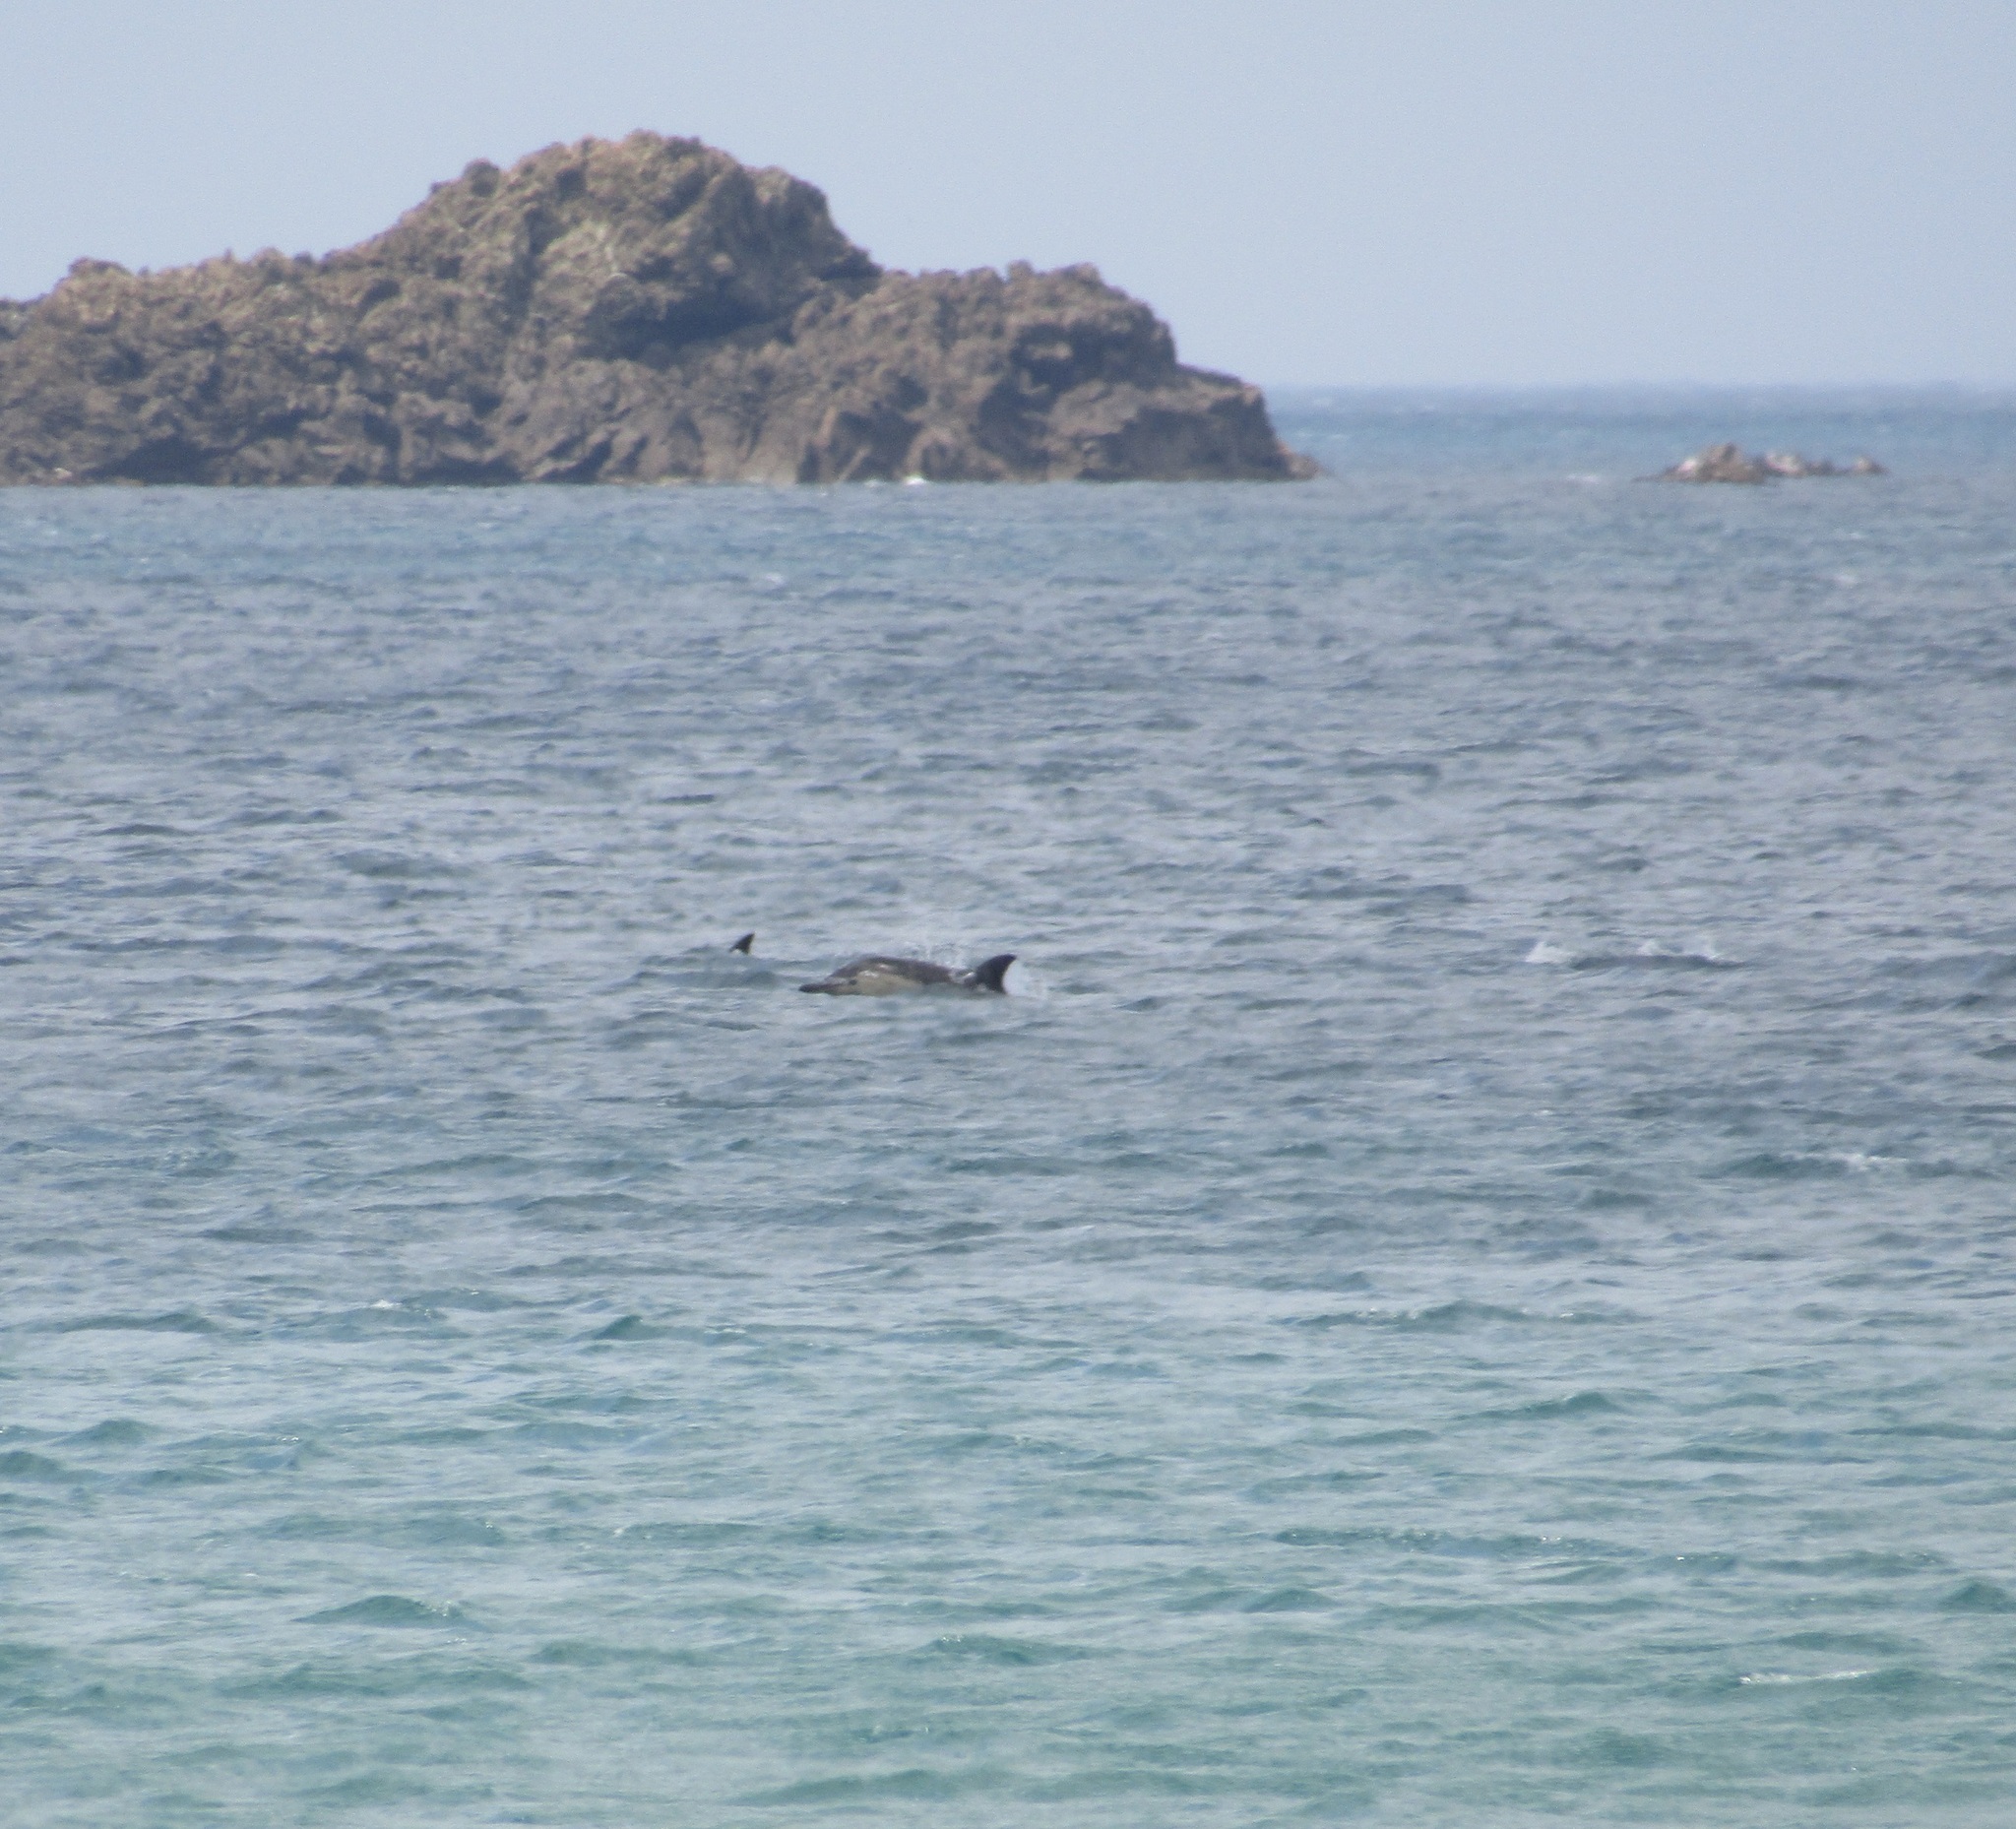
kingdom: Animalia
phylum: Chordata
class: Mammalia
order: Cetacea
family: Delphinidae
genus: Delphinus
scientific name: Delphinus delphis
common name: Common dolphin
